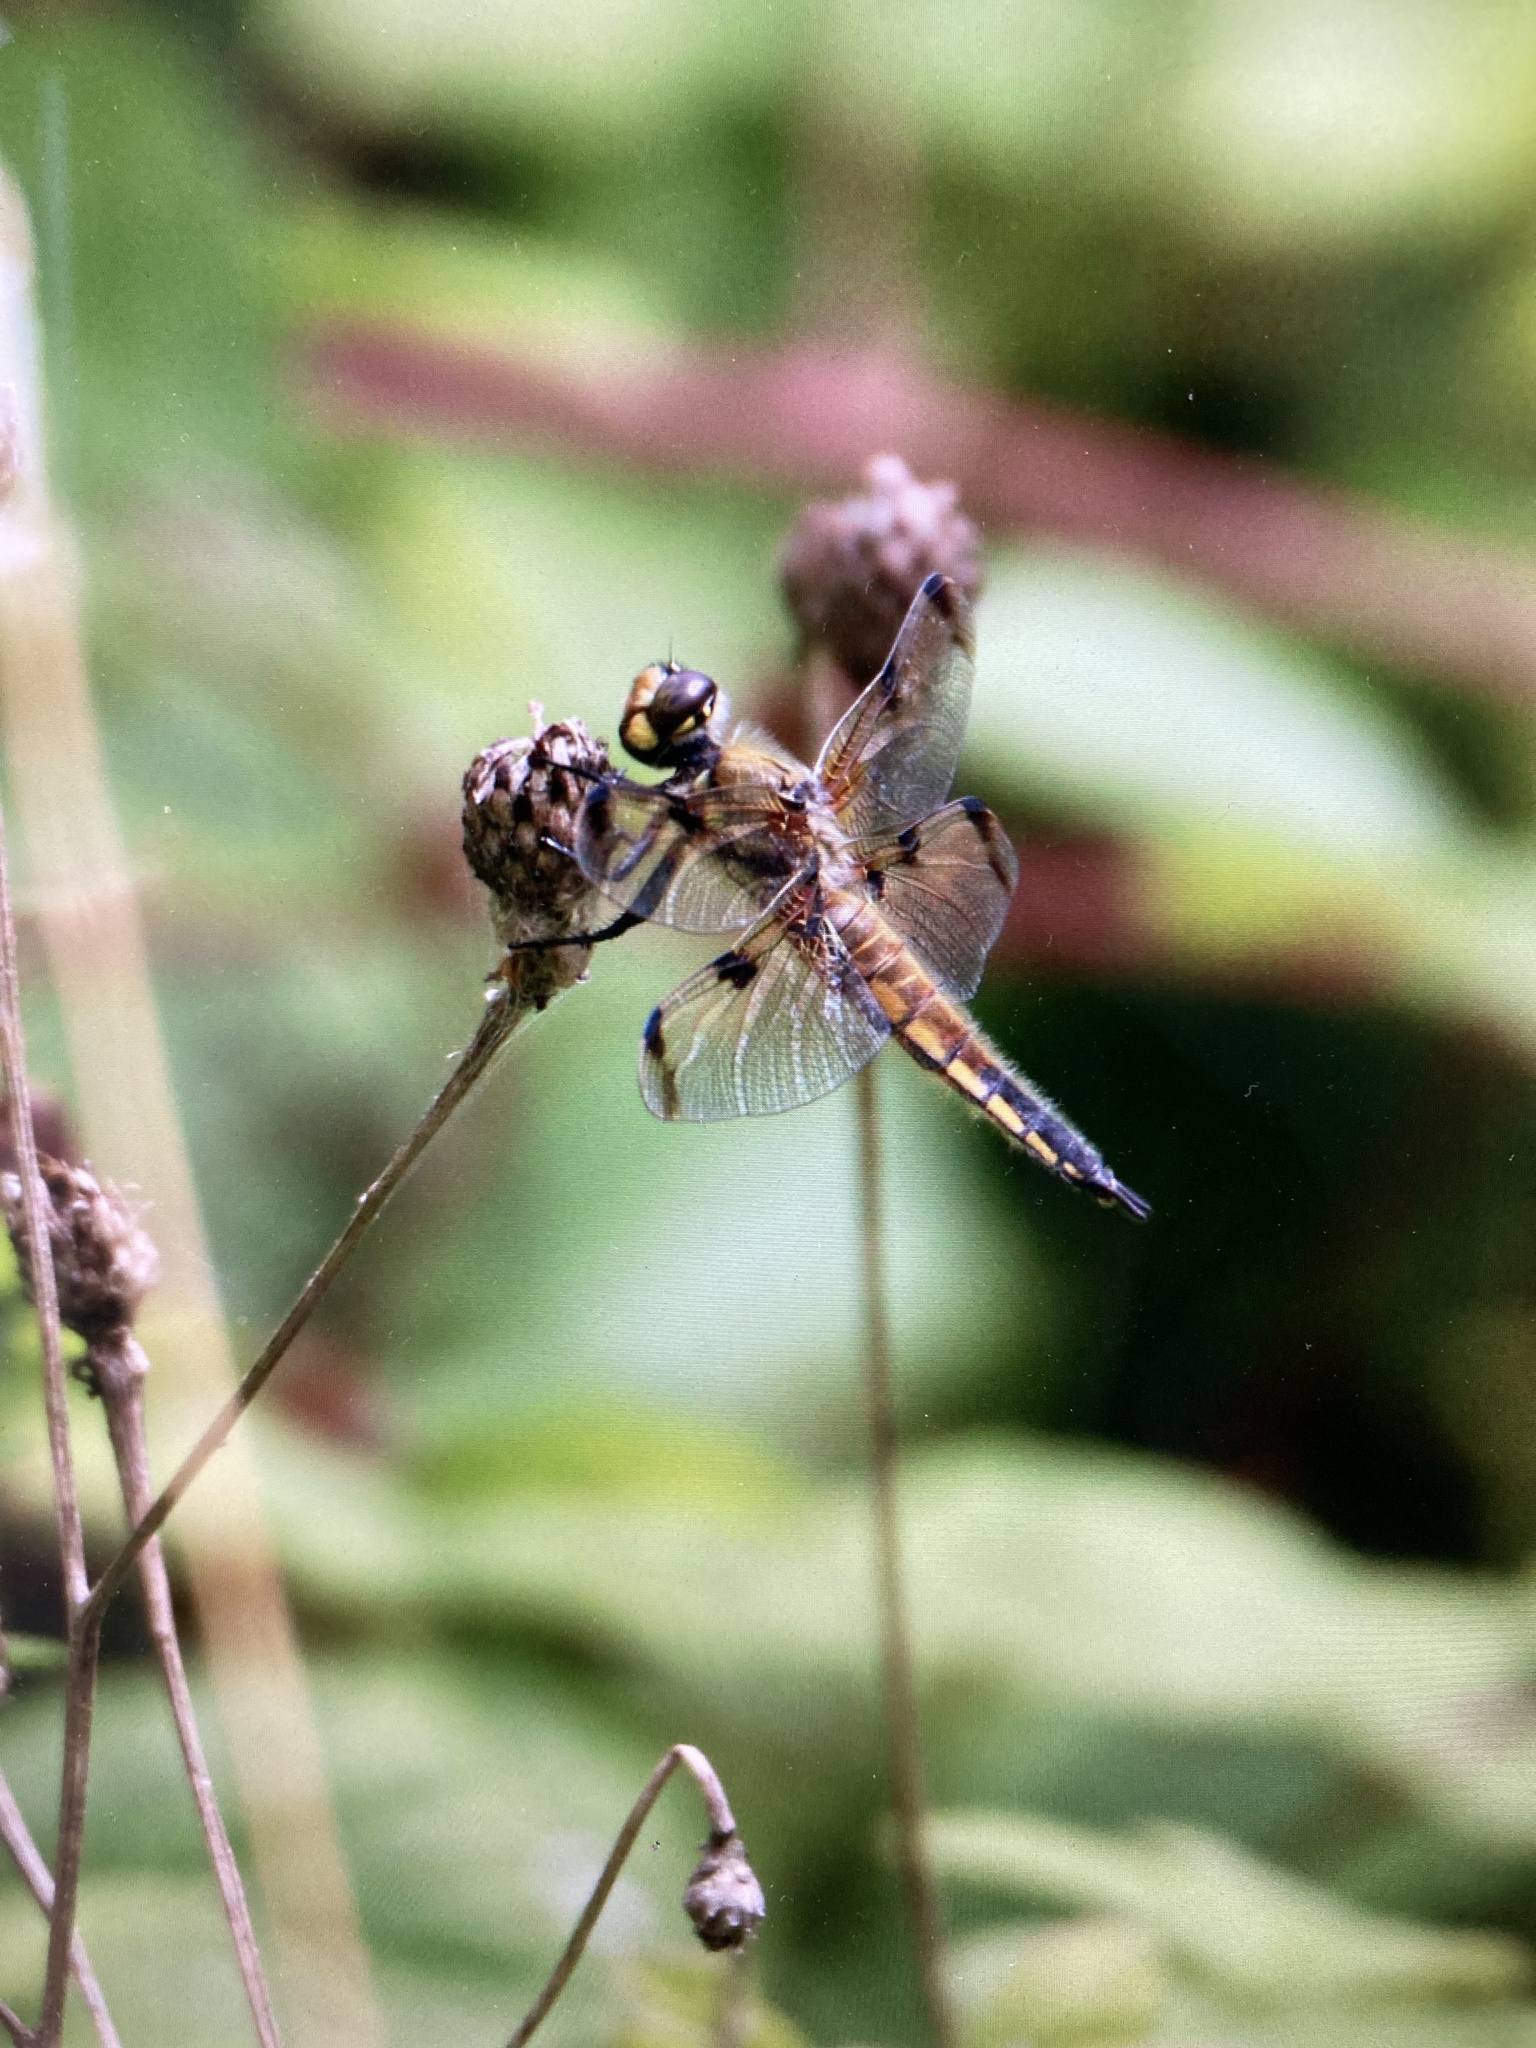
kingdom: Animalia
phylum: Arthropoda
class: Insecta
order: Odonata
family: Libellulidae
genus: Libellula
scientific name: Libellula quadrimaculata
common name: Four-spotted chaser
